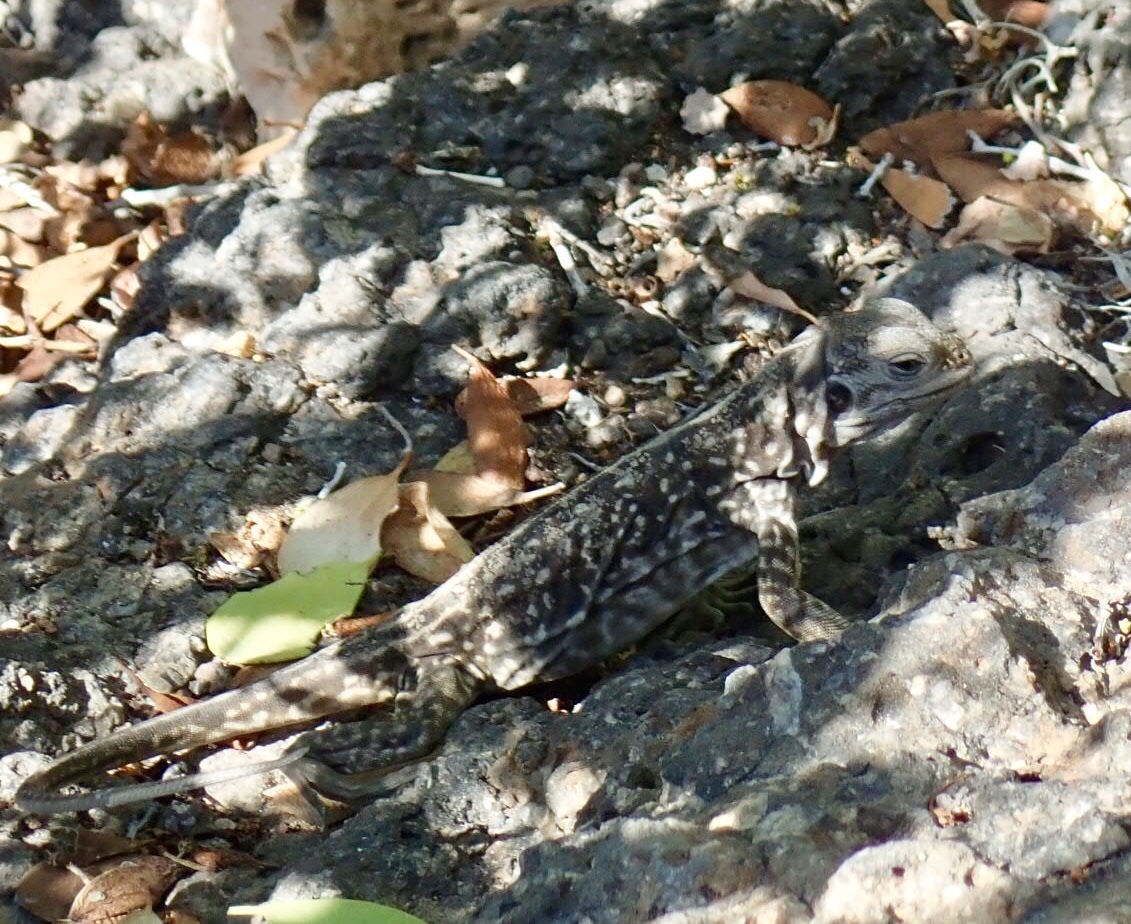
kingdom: Animalia
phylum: Chordata
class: Squamata
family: Iguanidae
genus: Conolophus
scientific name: Conolophus subcristatus
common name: Galapagos land iguana
